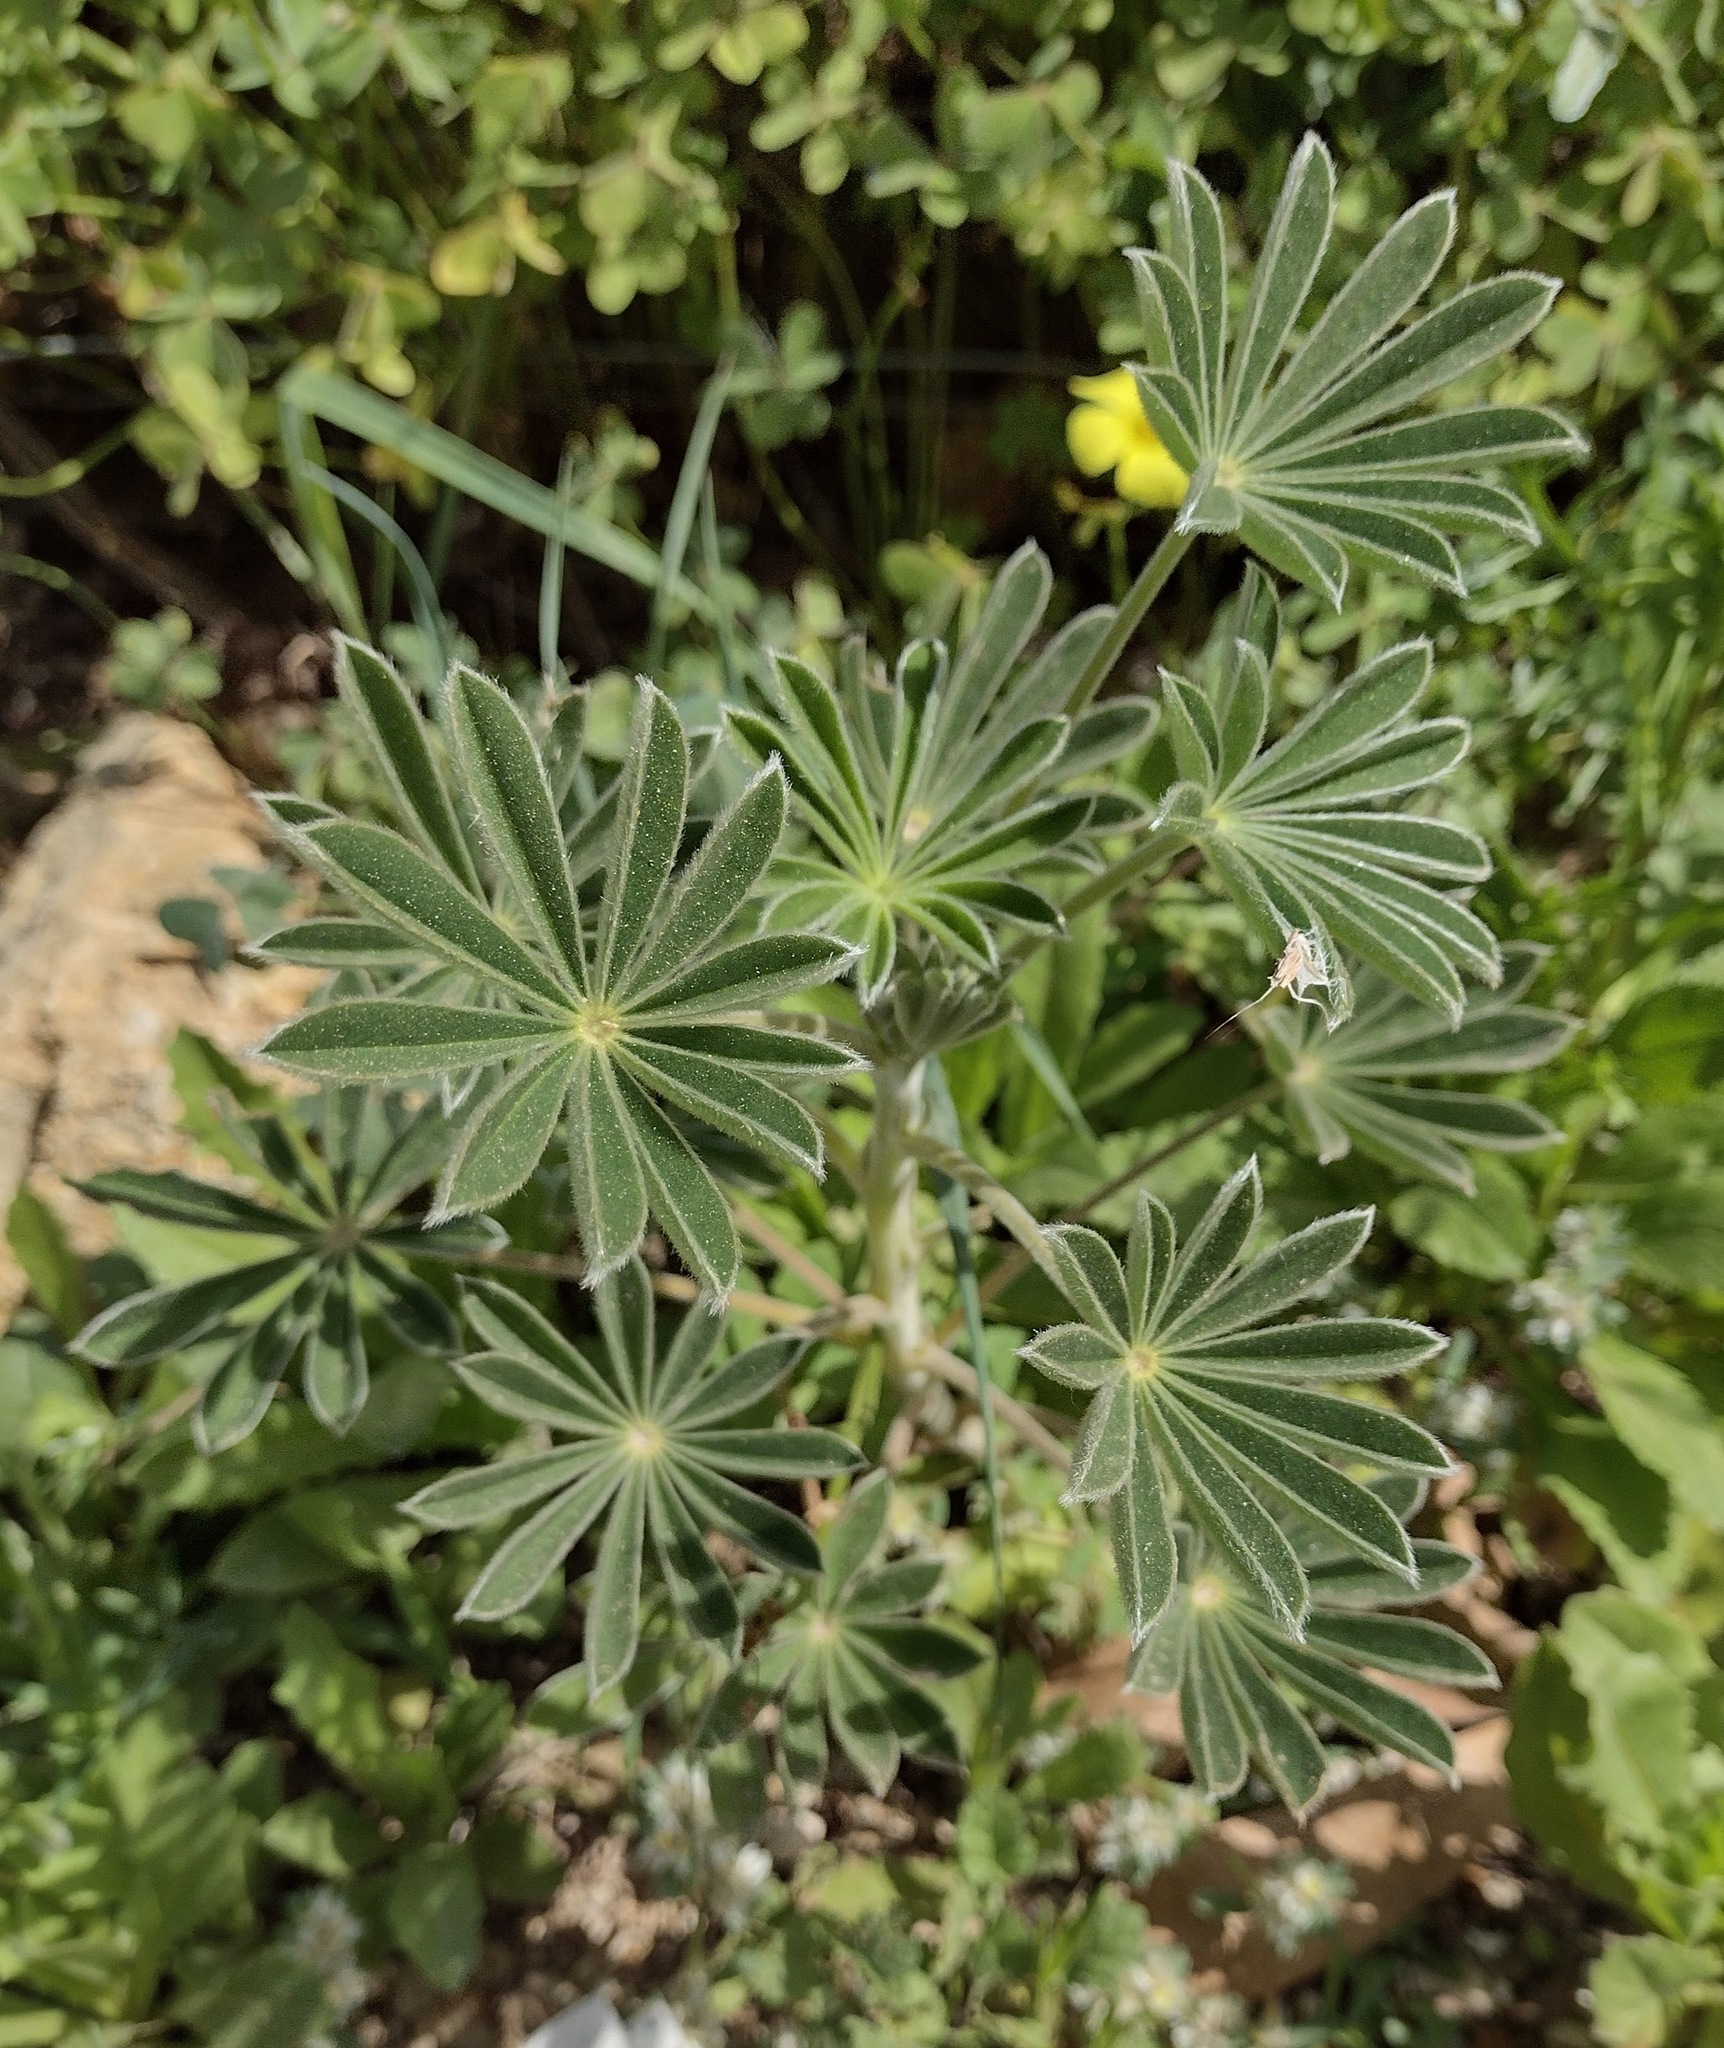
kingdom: Plantae
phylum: Tracheophyta
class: Magnoliopsida
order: Fabales
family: Fabaceae
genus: Lupinus
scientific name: Lupinus cosentinii
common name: Hairy blue lupin
